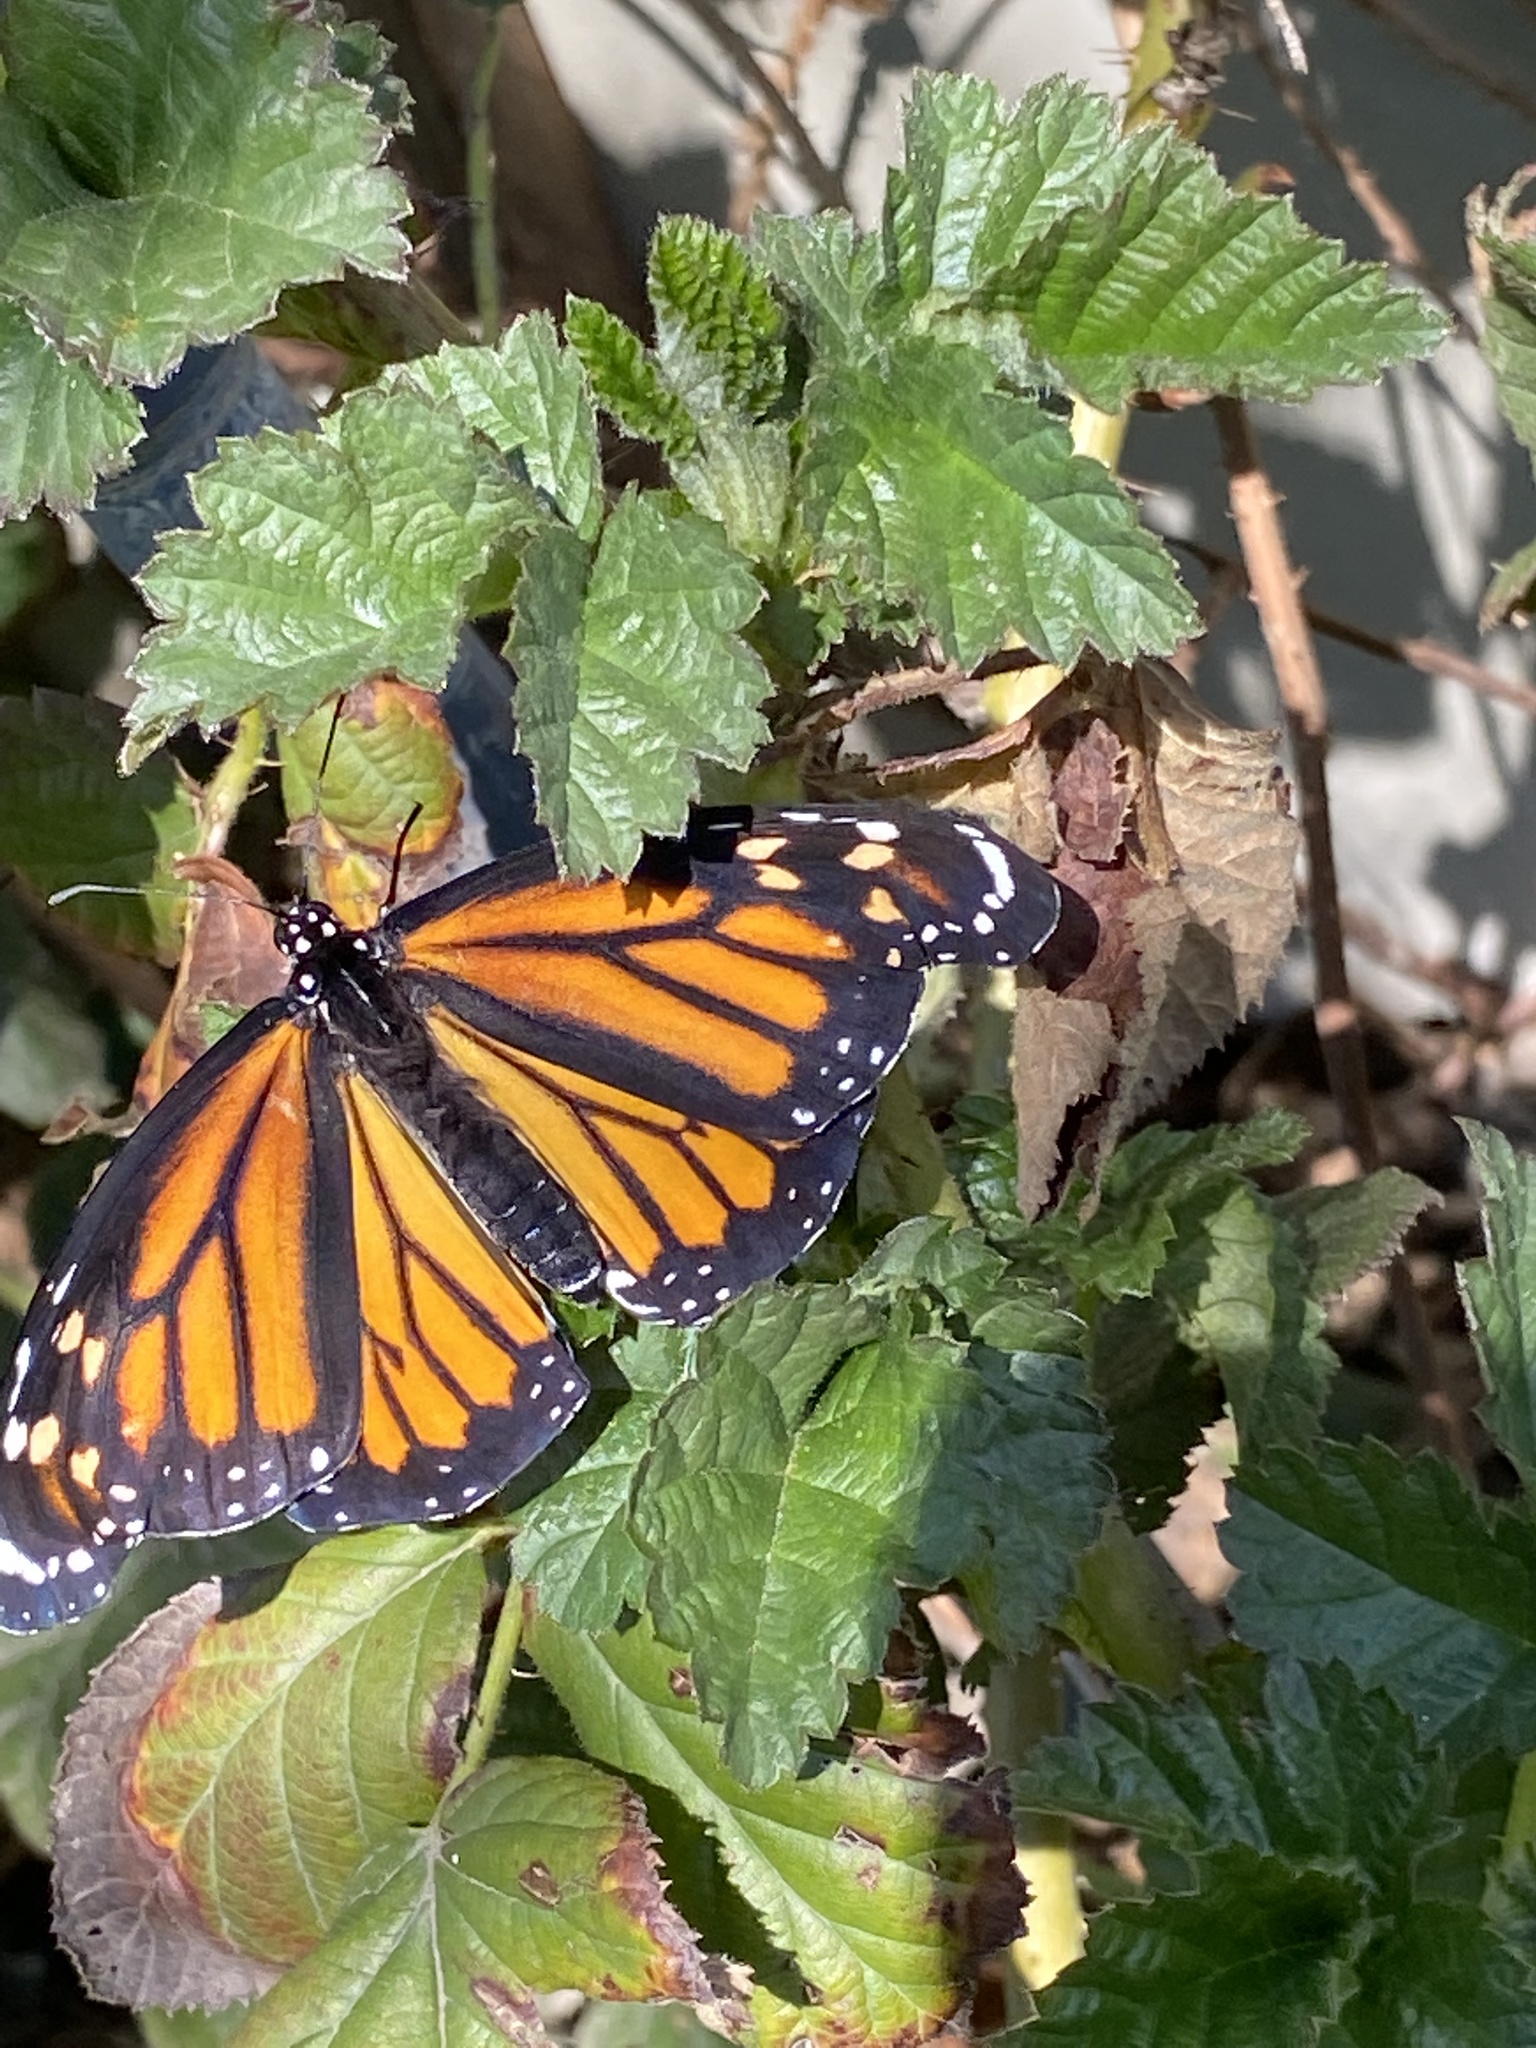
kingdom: Animalia
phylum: Arthropoda
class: Insecta
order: Lepidoptera
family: Nymphalidae
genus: Danaus
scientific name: Danaus plexippus
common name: Monarch
